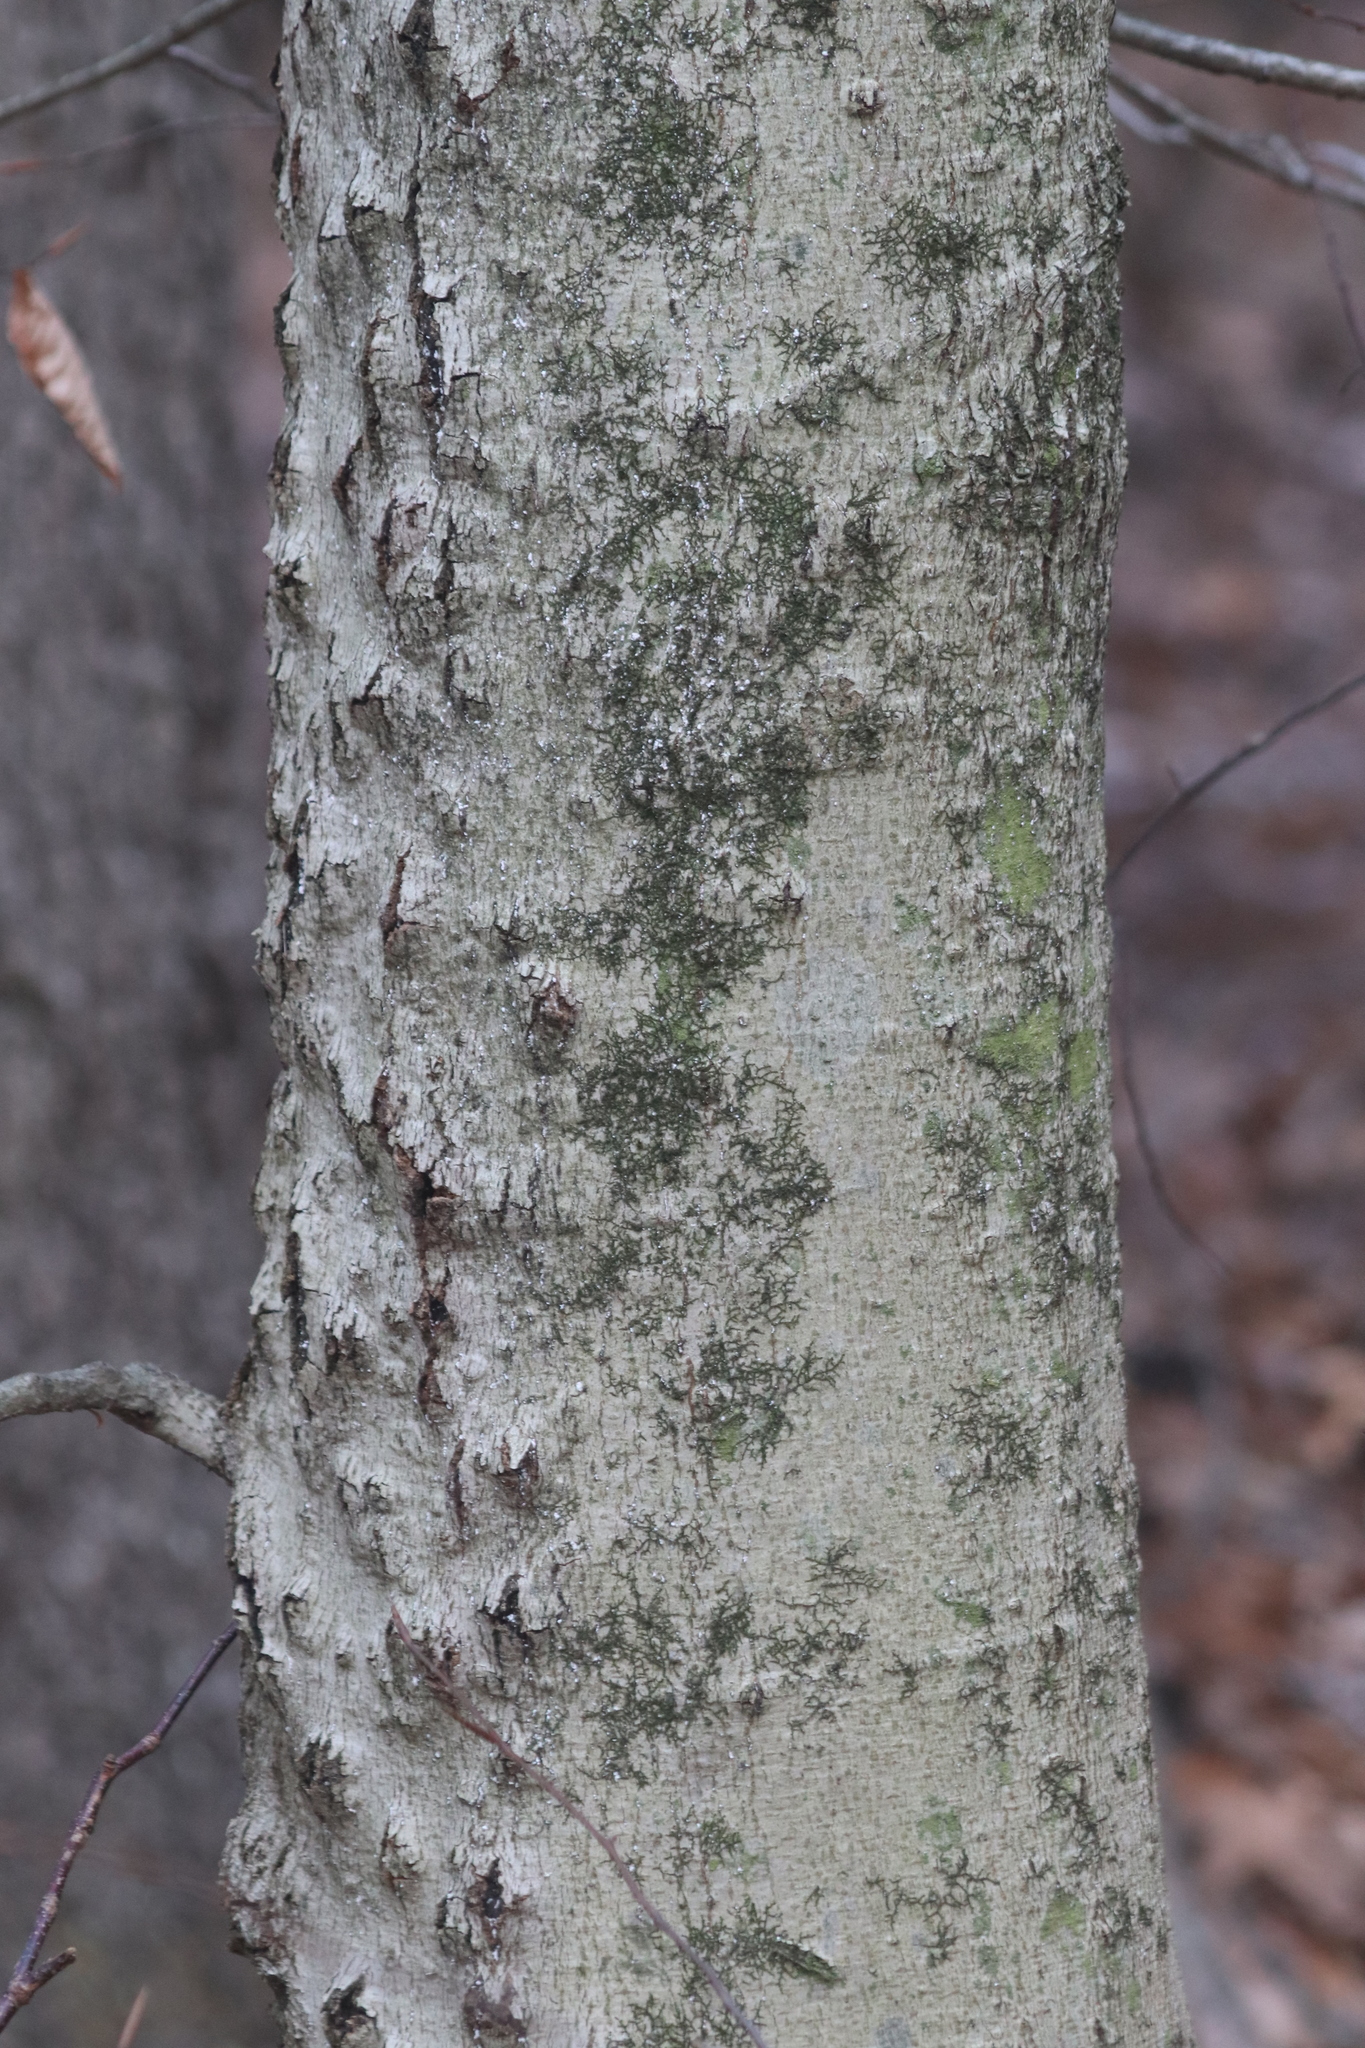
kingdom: Fungi
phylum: Ascomycota
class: Sordariomycetes
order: Hypocreales
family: Nectriaceae
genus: Neonectria
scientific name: Neonectria faginata
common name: Beech bark canker
